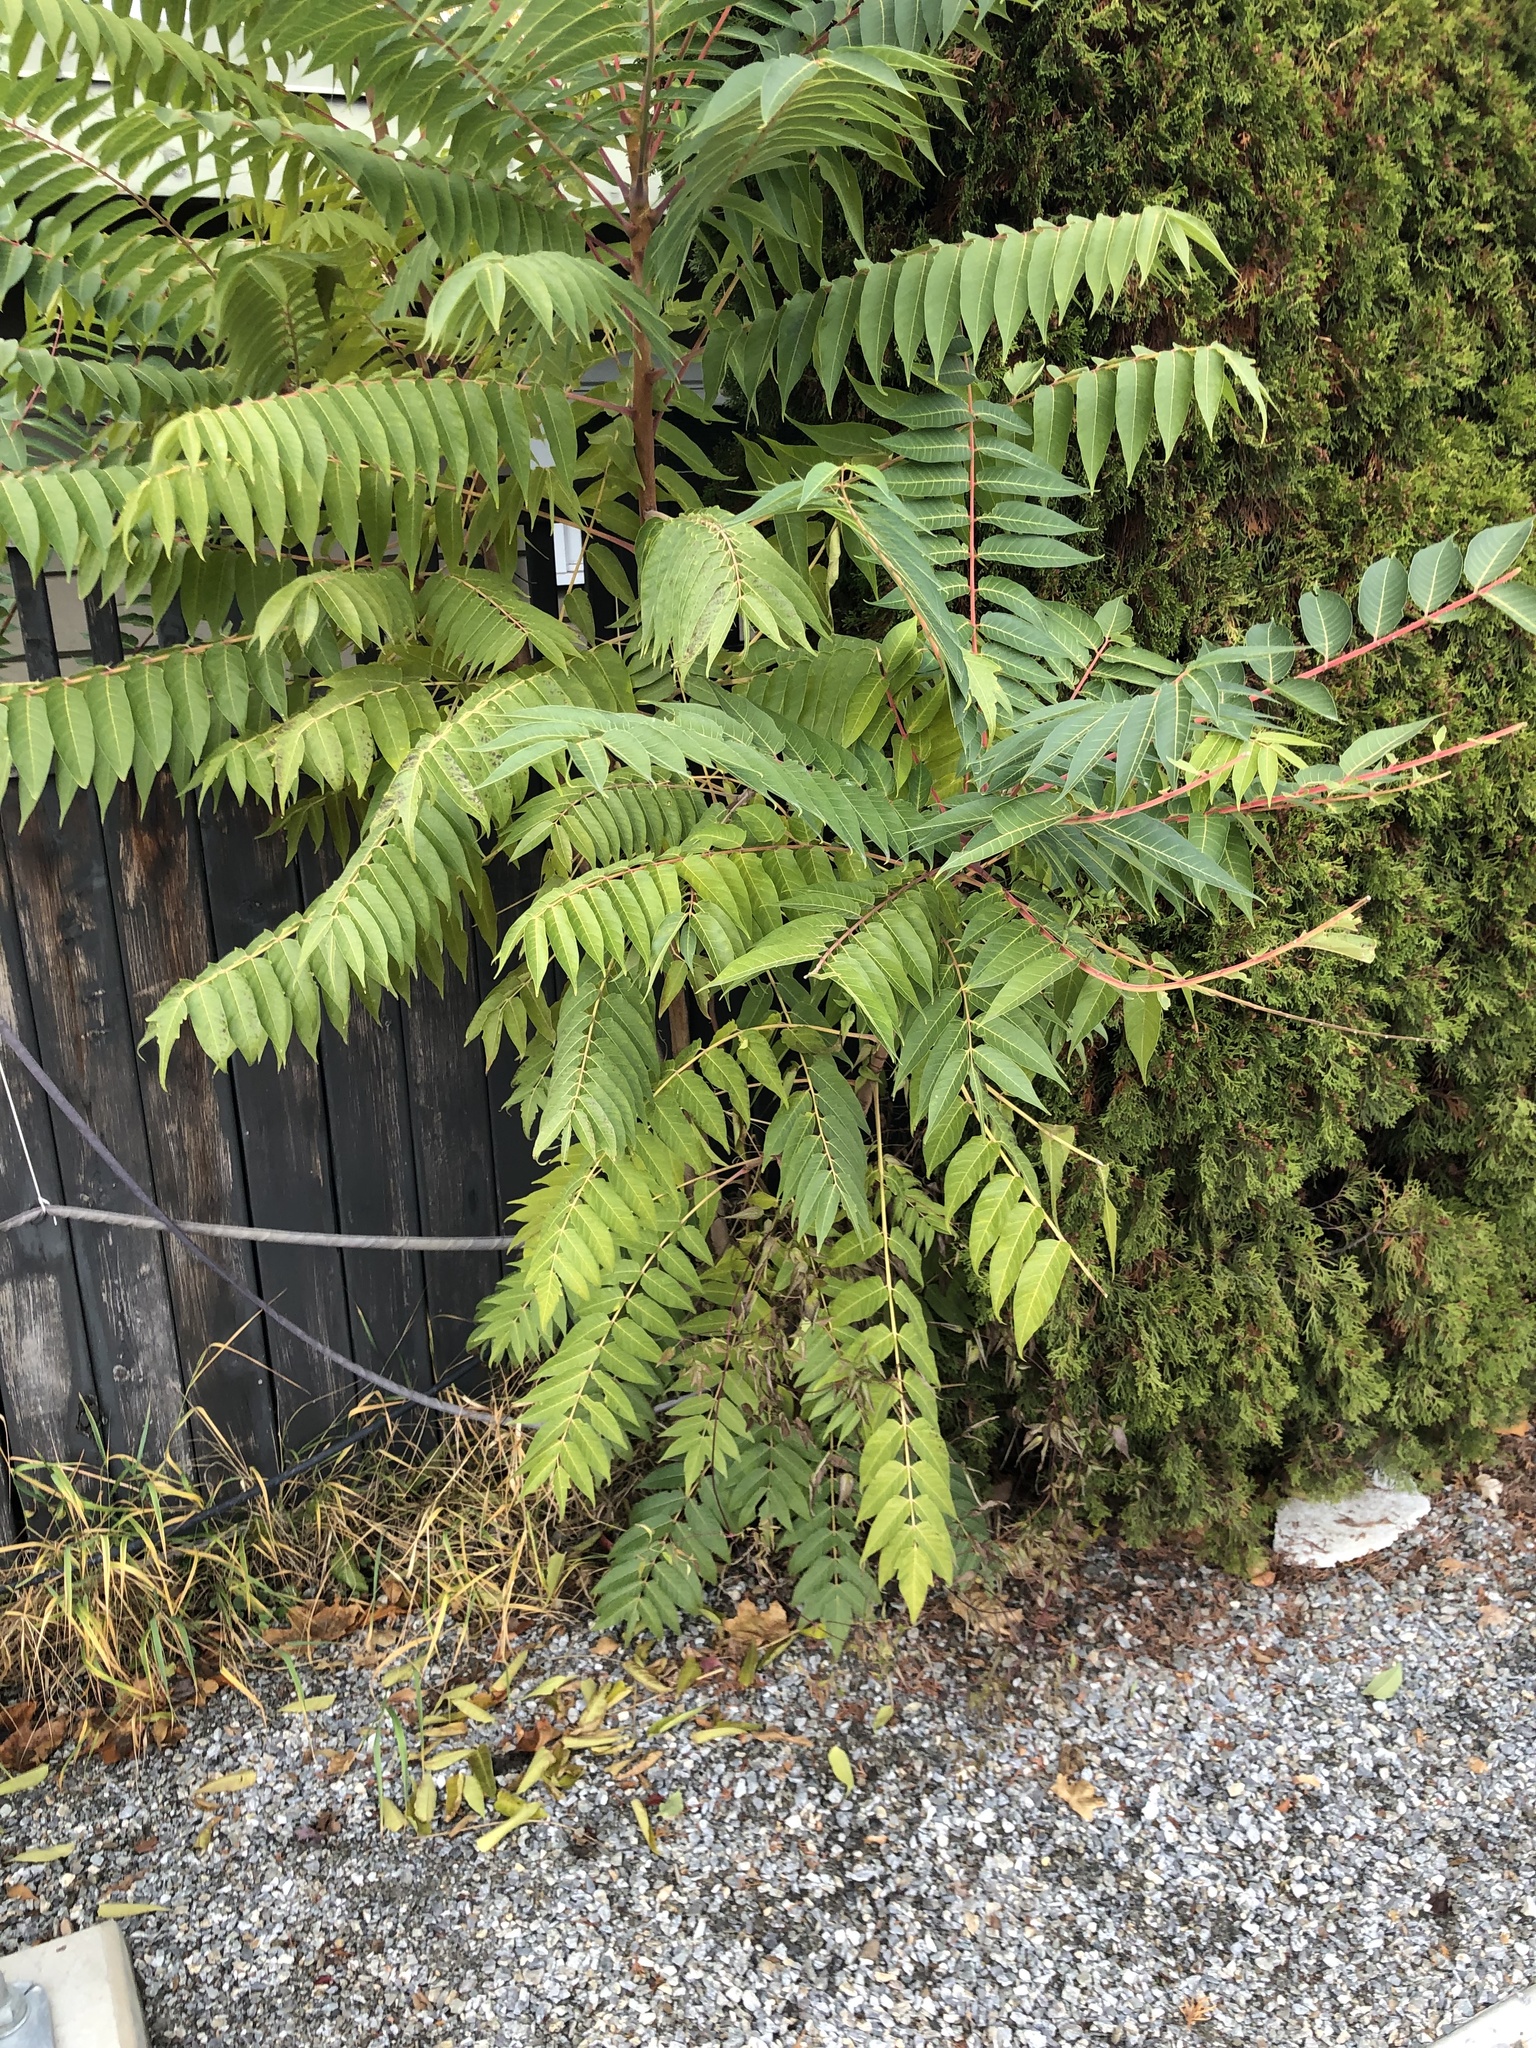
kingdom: Plantae
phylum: Tracheophyta
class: Magnoliopsida
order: Sapindales
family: Simaroubaceae
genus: Ailanthus
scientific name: Ailanthus altissima
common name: Tree-of-heaven
